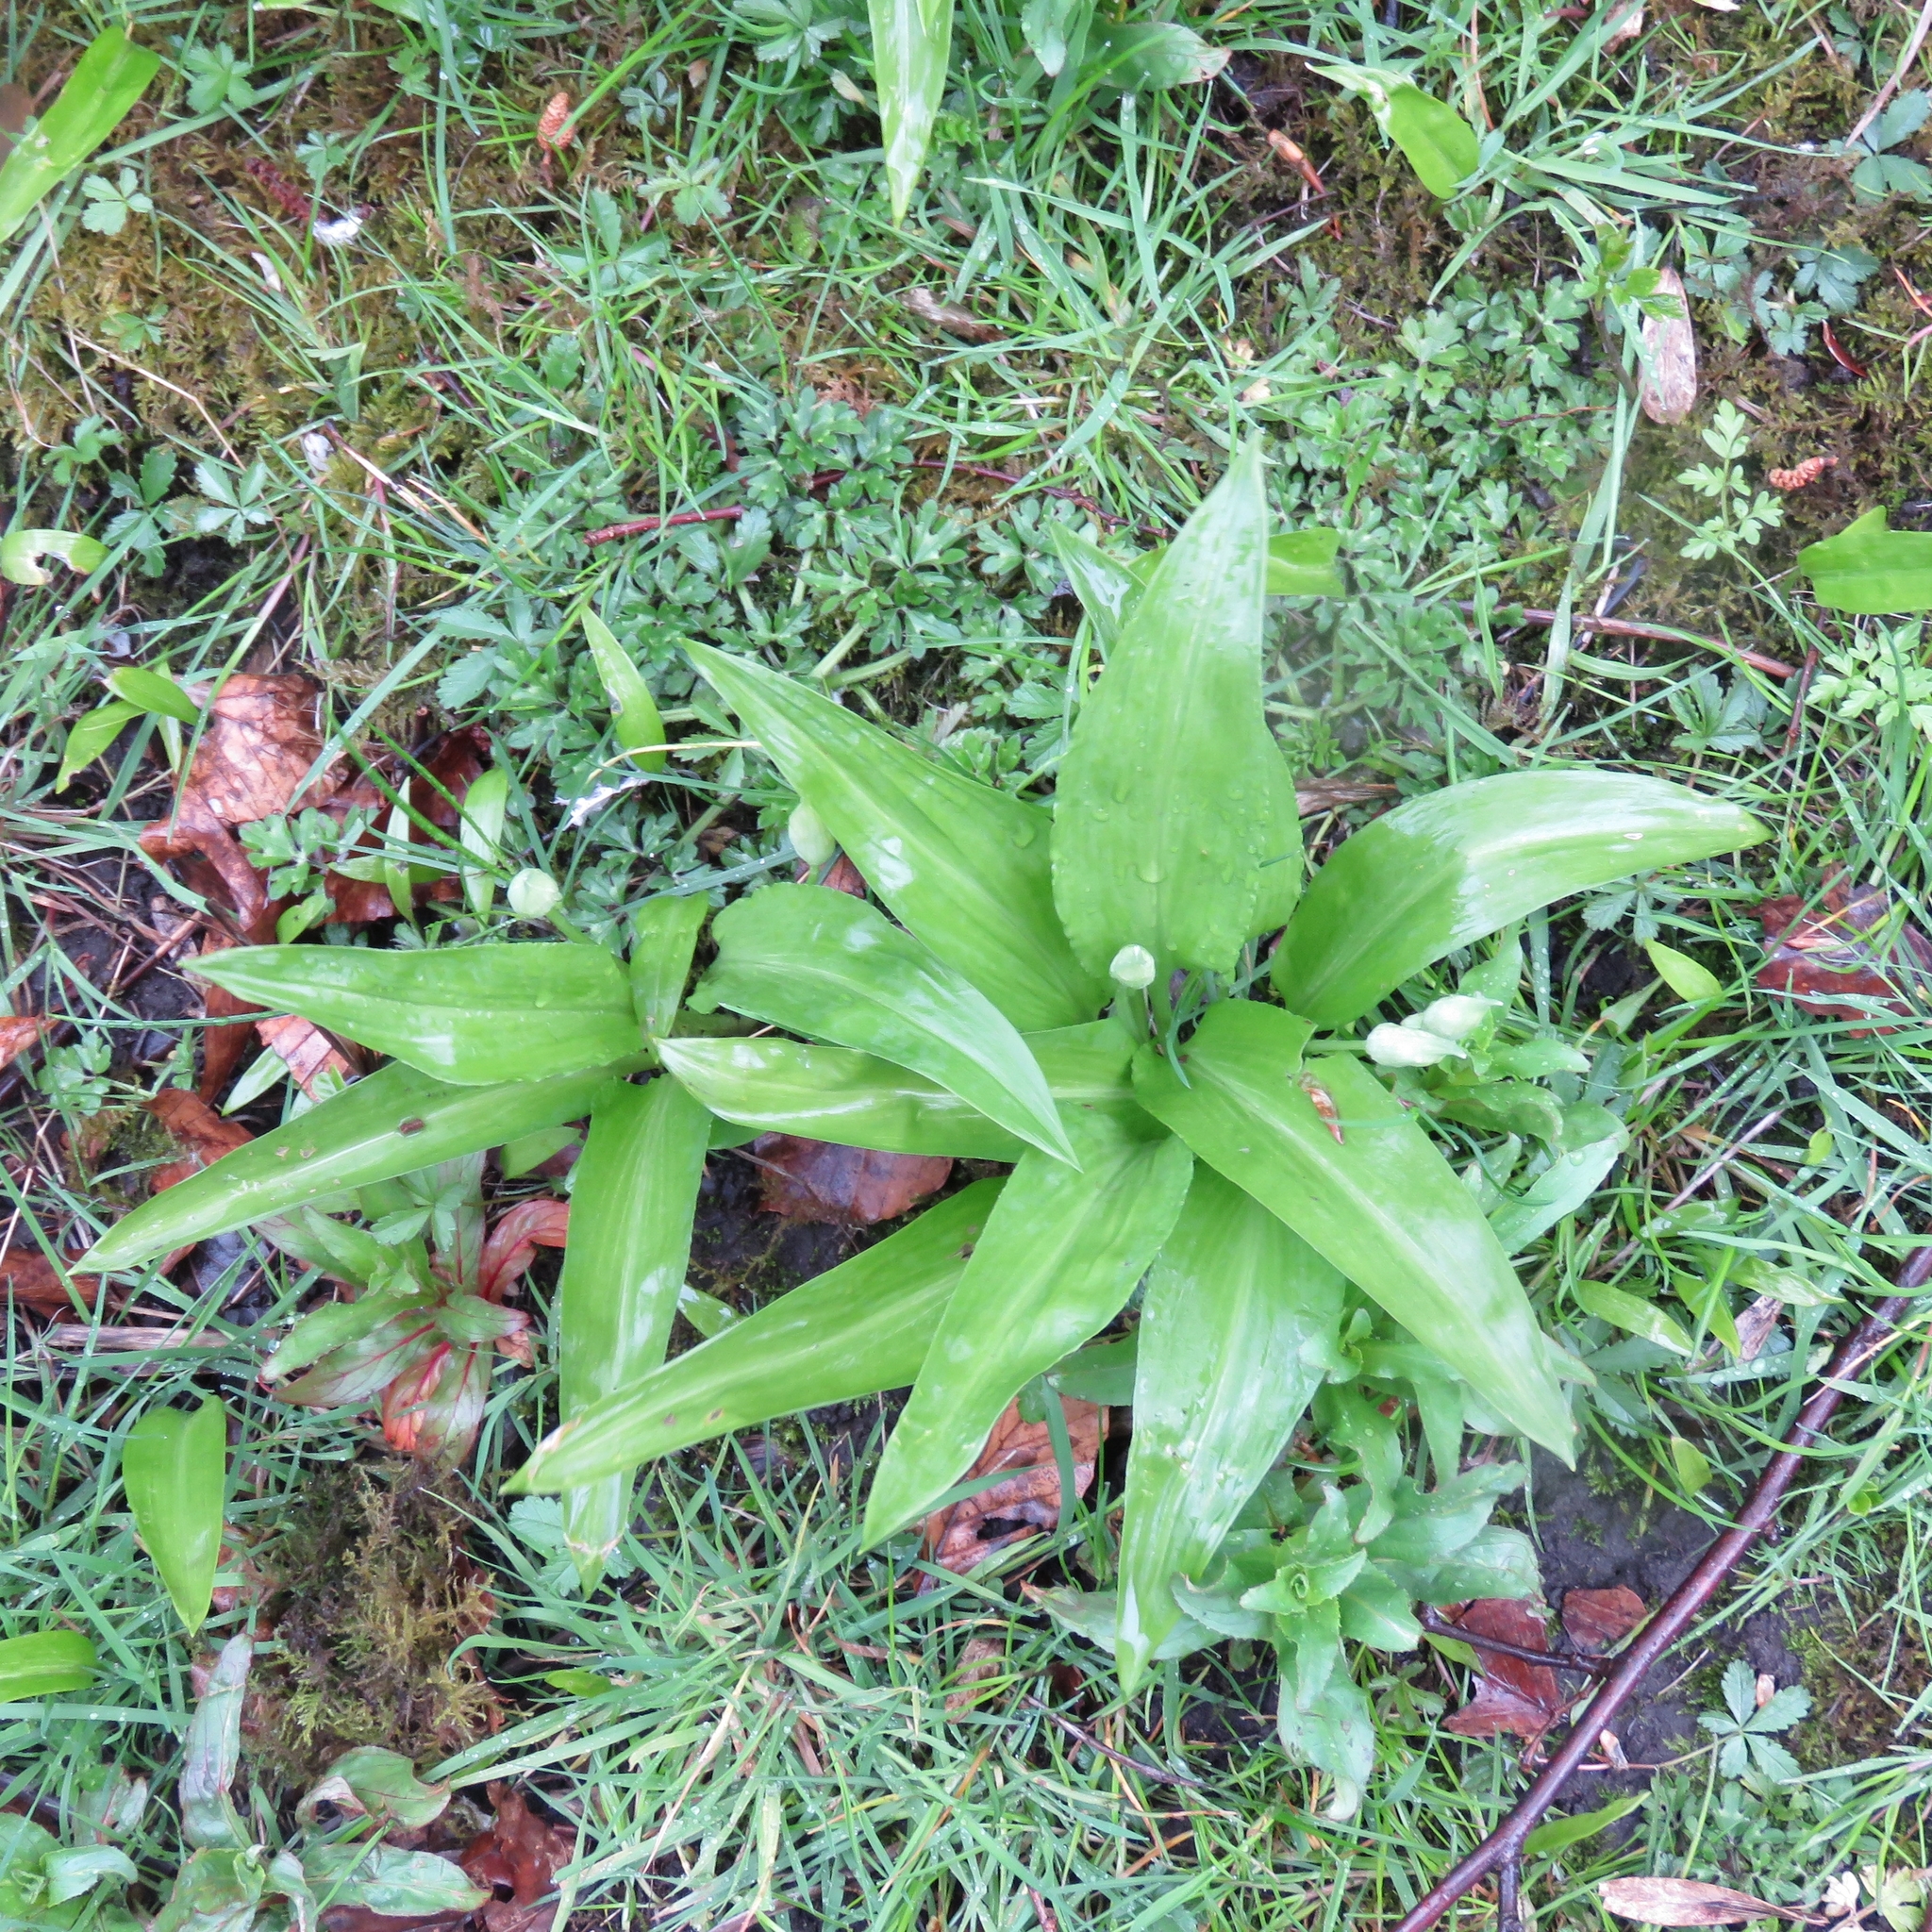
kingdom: Plantae
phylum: Tracheophyta
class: Liliopsida
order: Asparagales
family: Amaryllidaceae
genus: Allium
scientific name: Allium ursinum
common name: Ramsons
